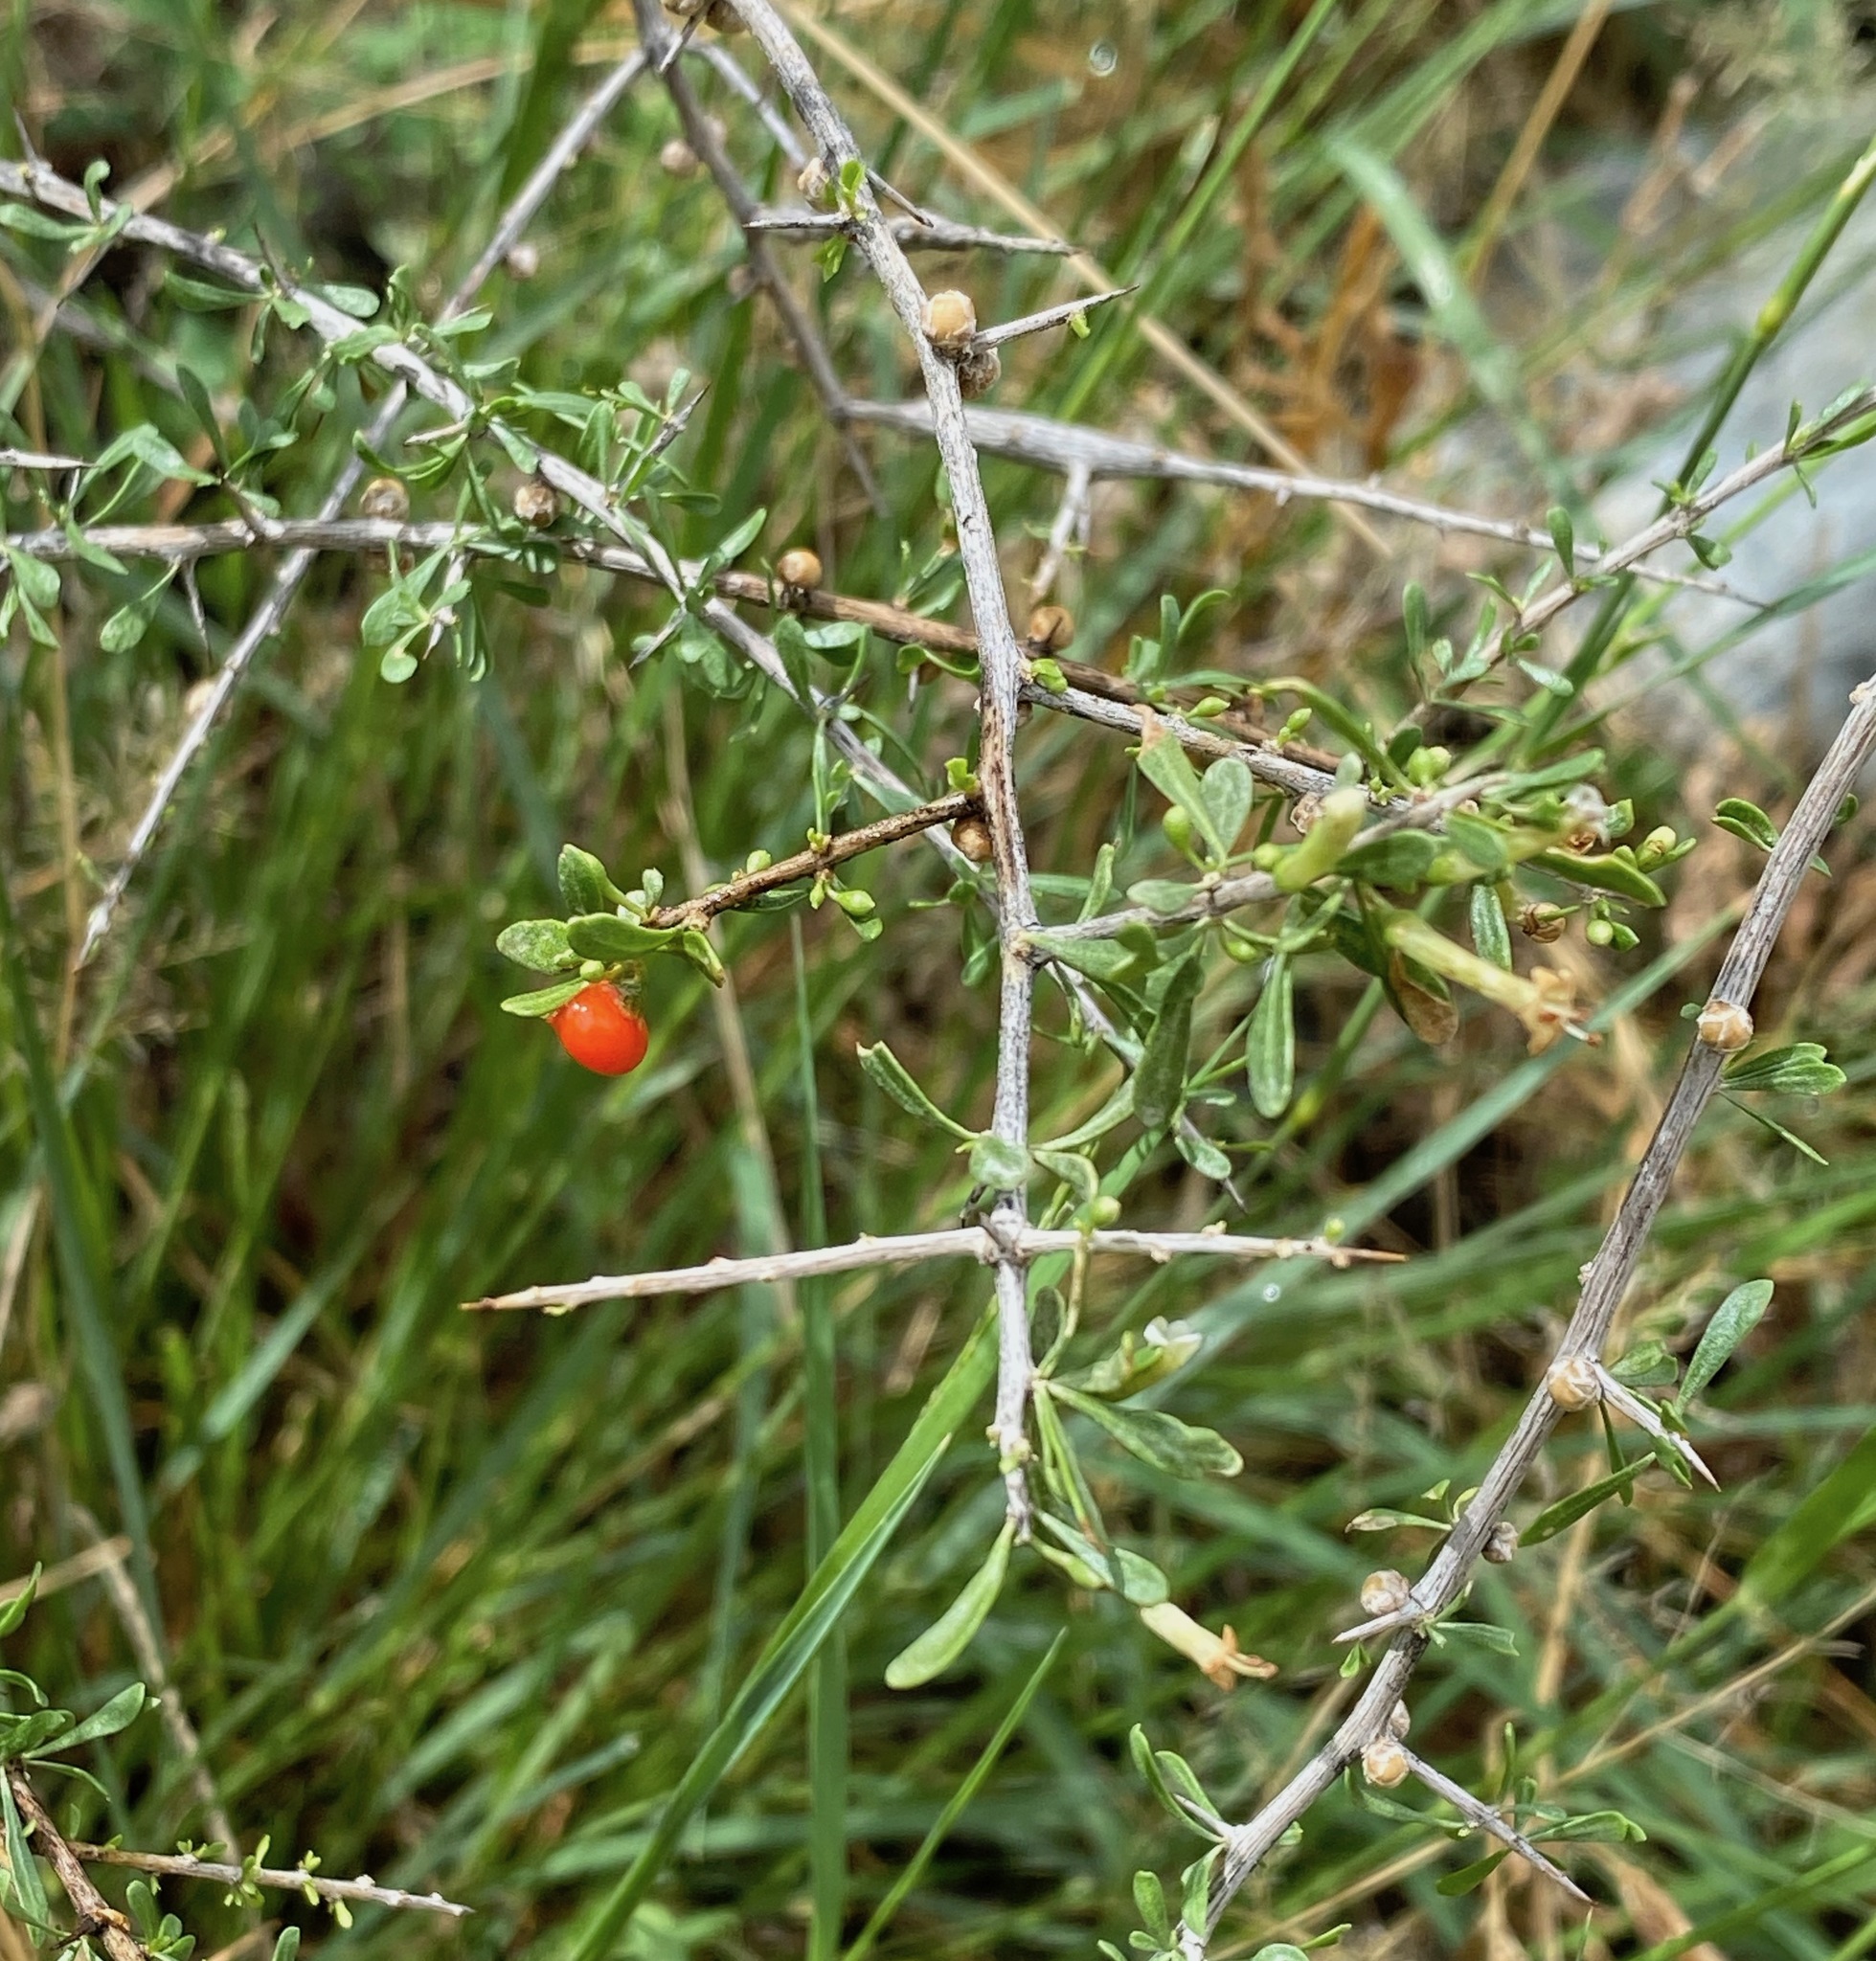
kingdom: Plantae
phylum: Tracheophyta
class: Magnoliopsida
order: Solanales
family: Solanaceae
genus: Lycium
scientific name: Lycium andersonii
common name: Water-jacket
